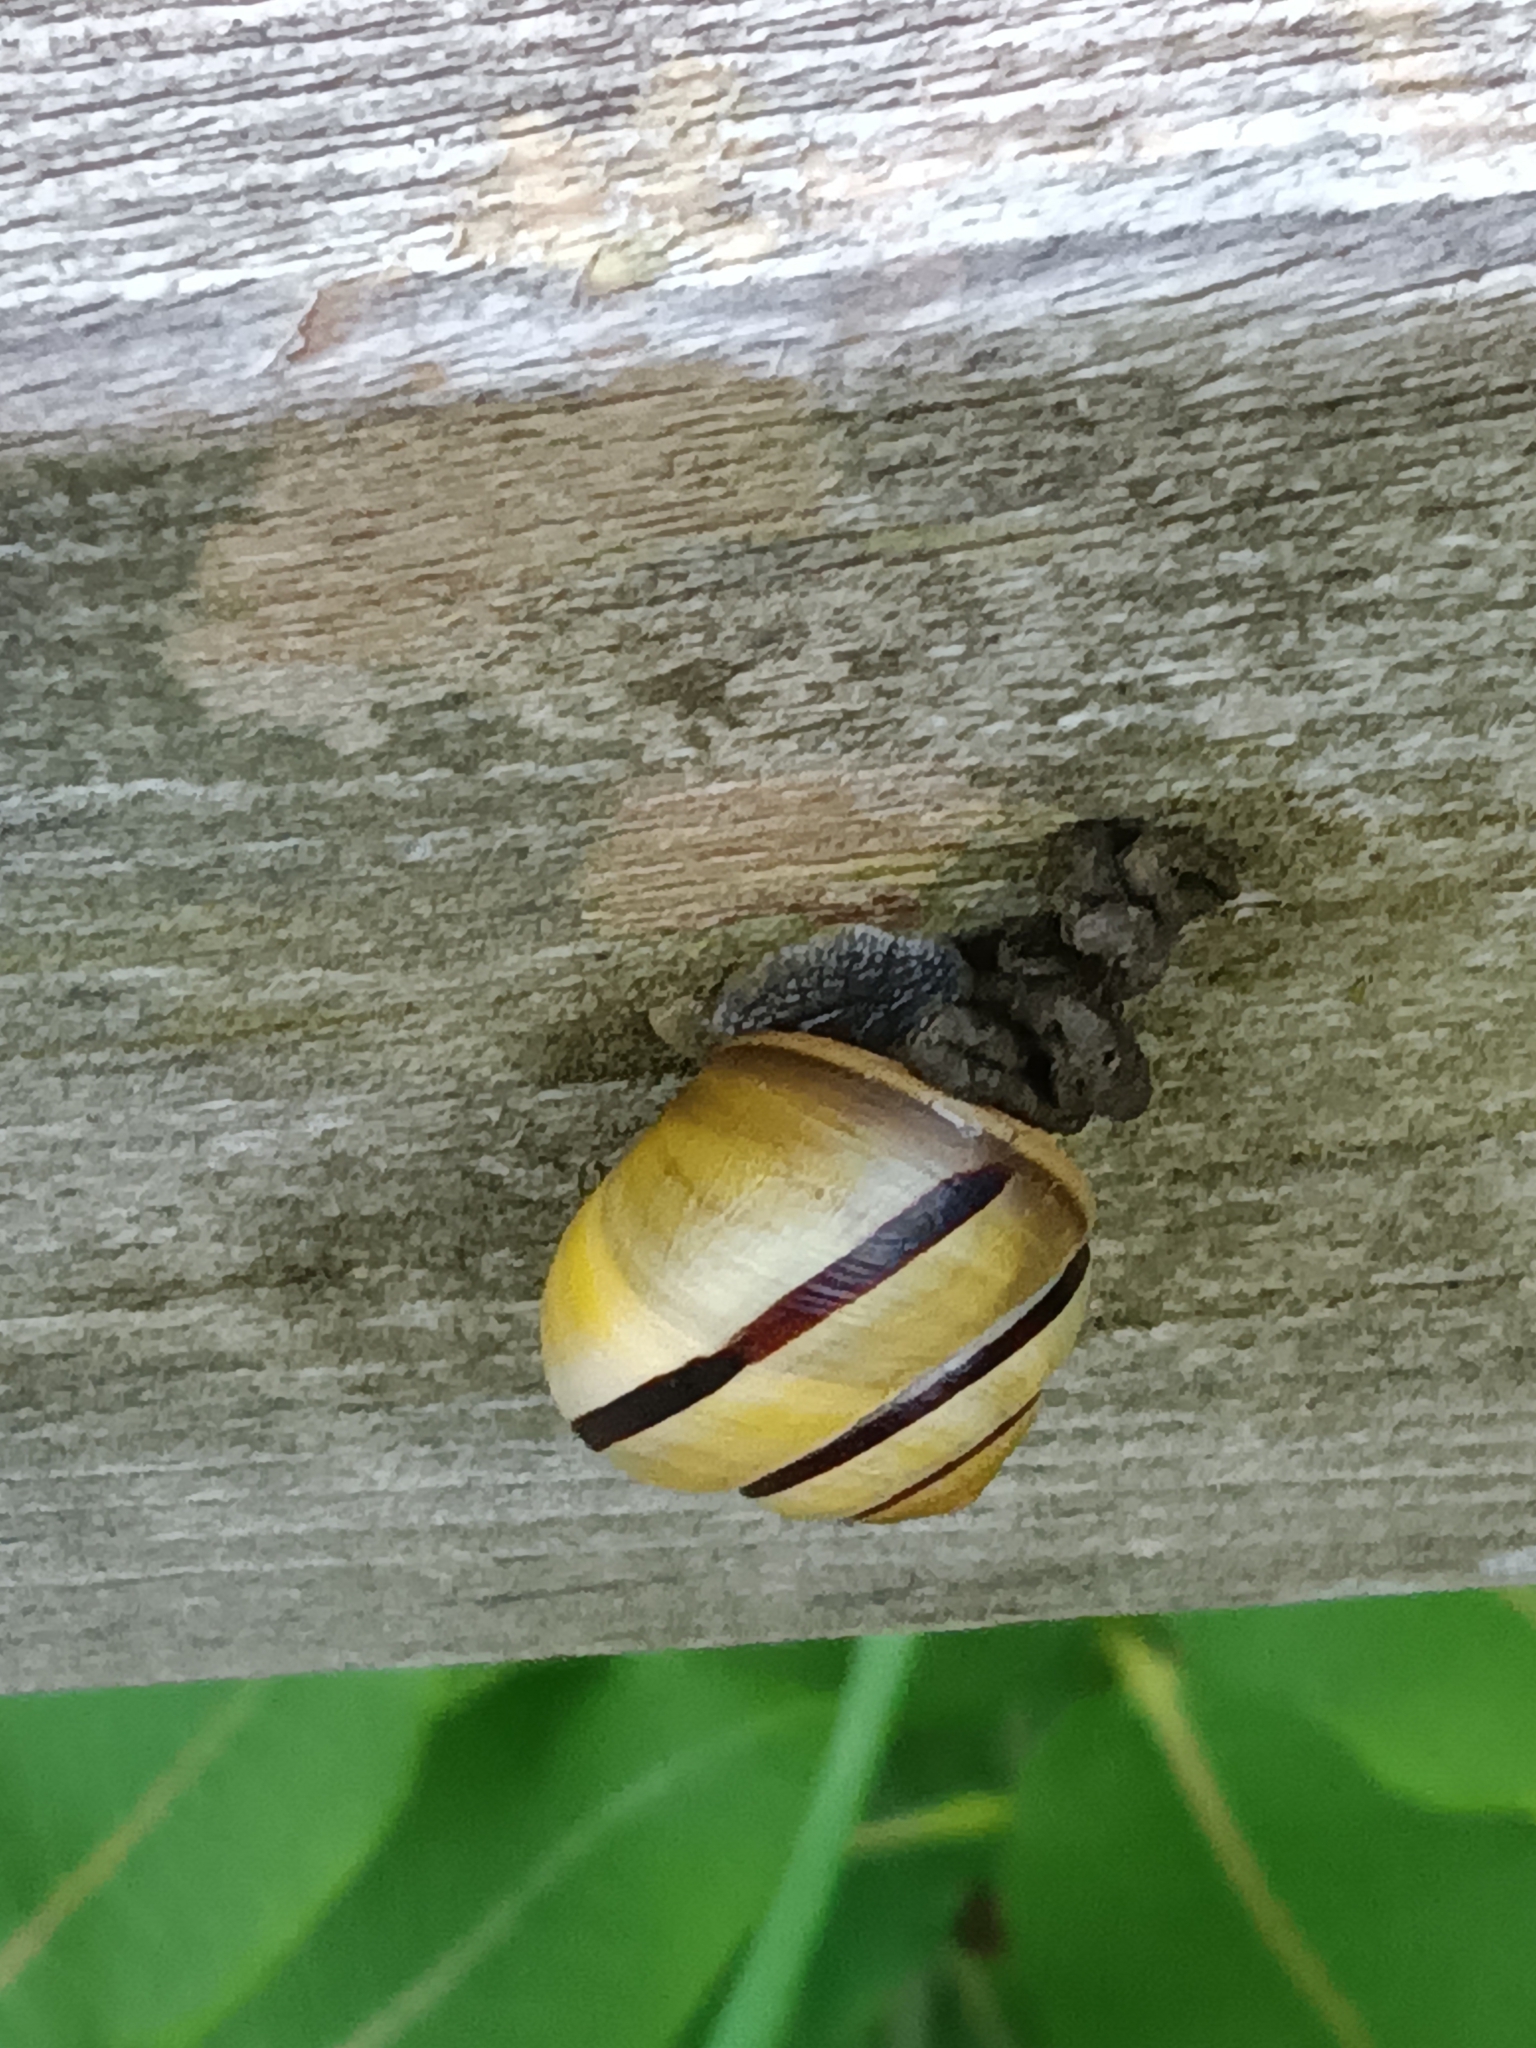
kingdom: Animalia
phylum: Mollusca
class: Gastropoda
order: Stylommatophora
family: Helicidae
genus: Cepaea
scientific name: Cepaea nemoralis
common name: Grovesnail
